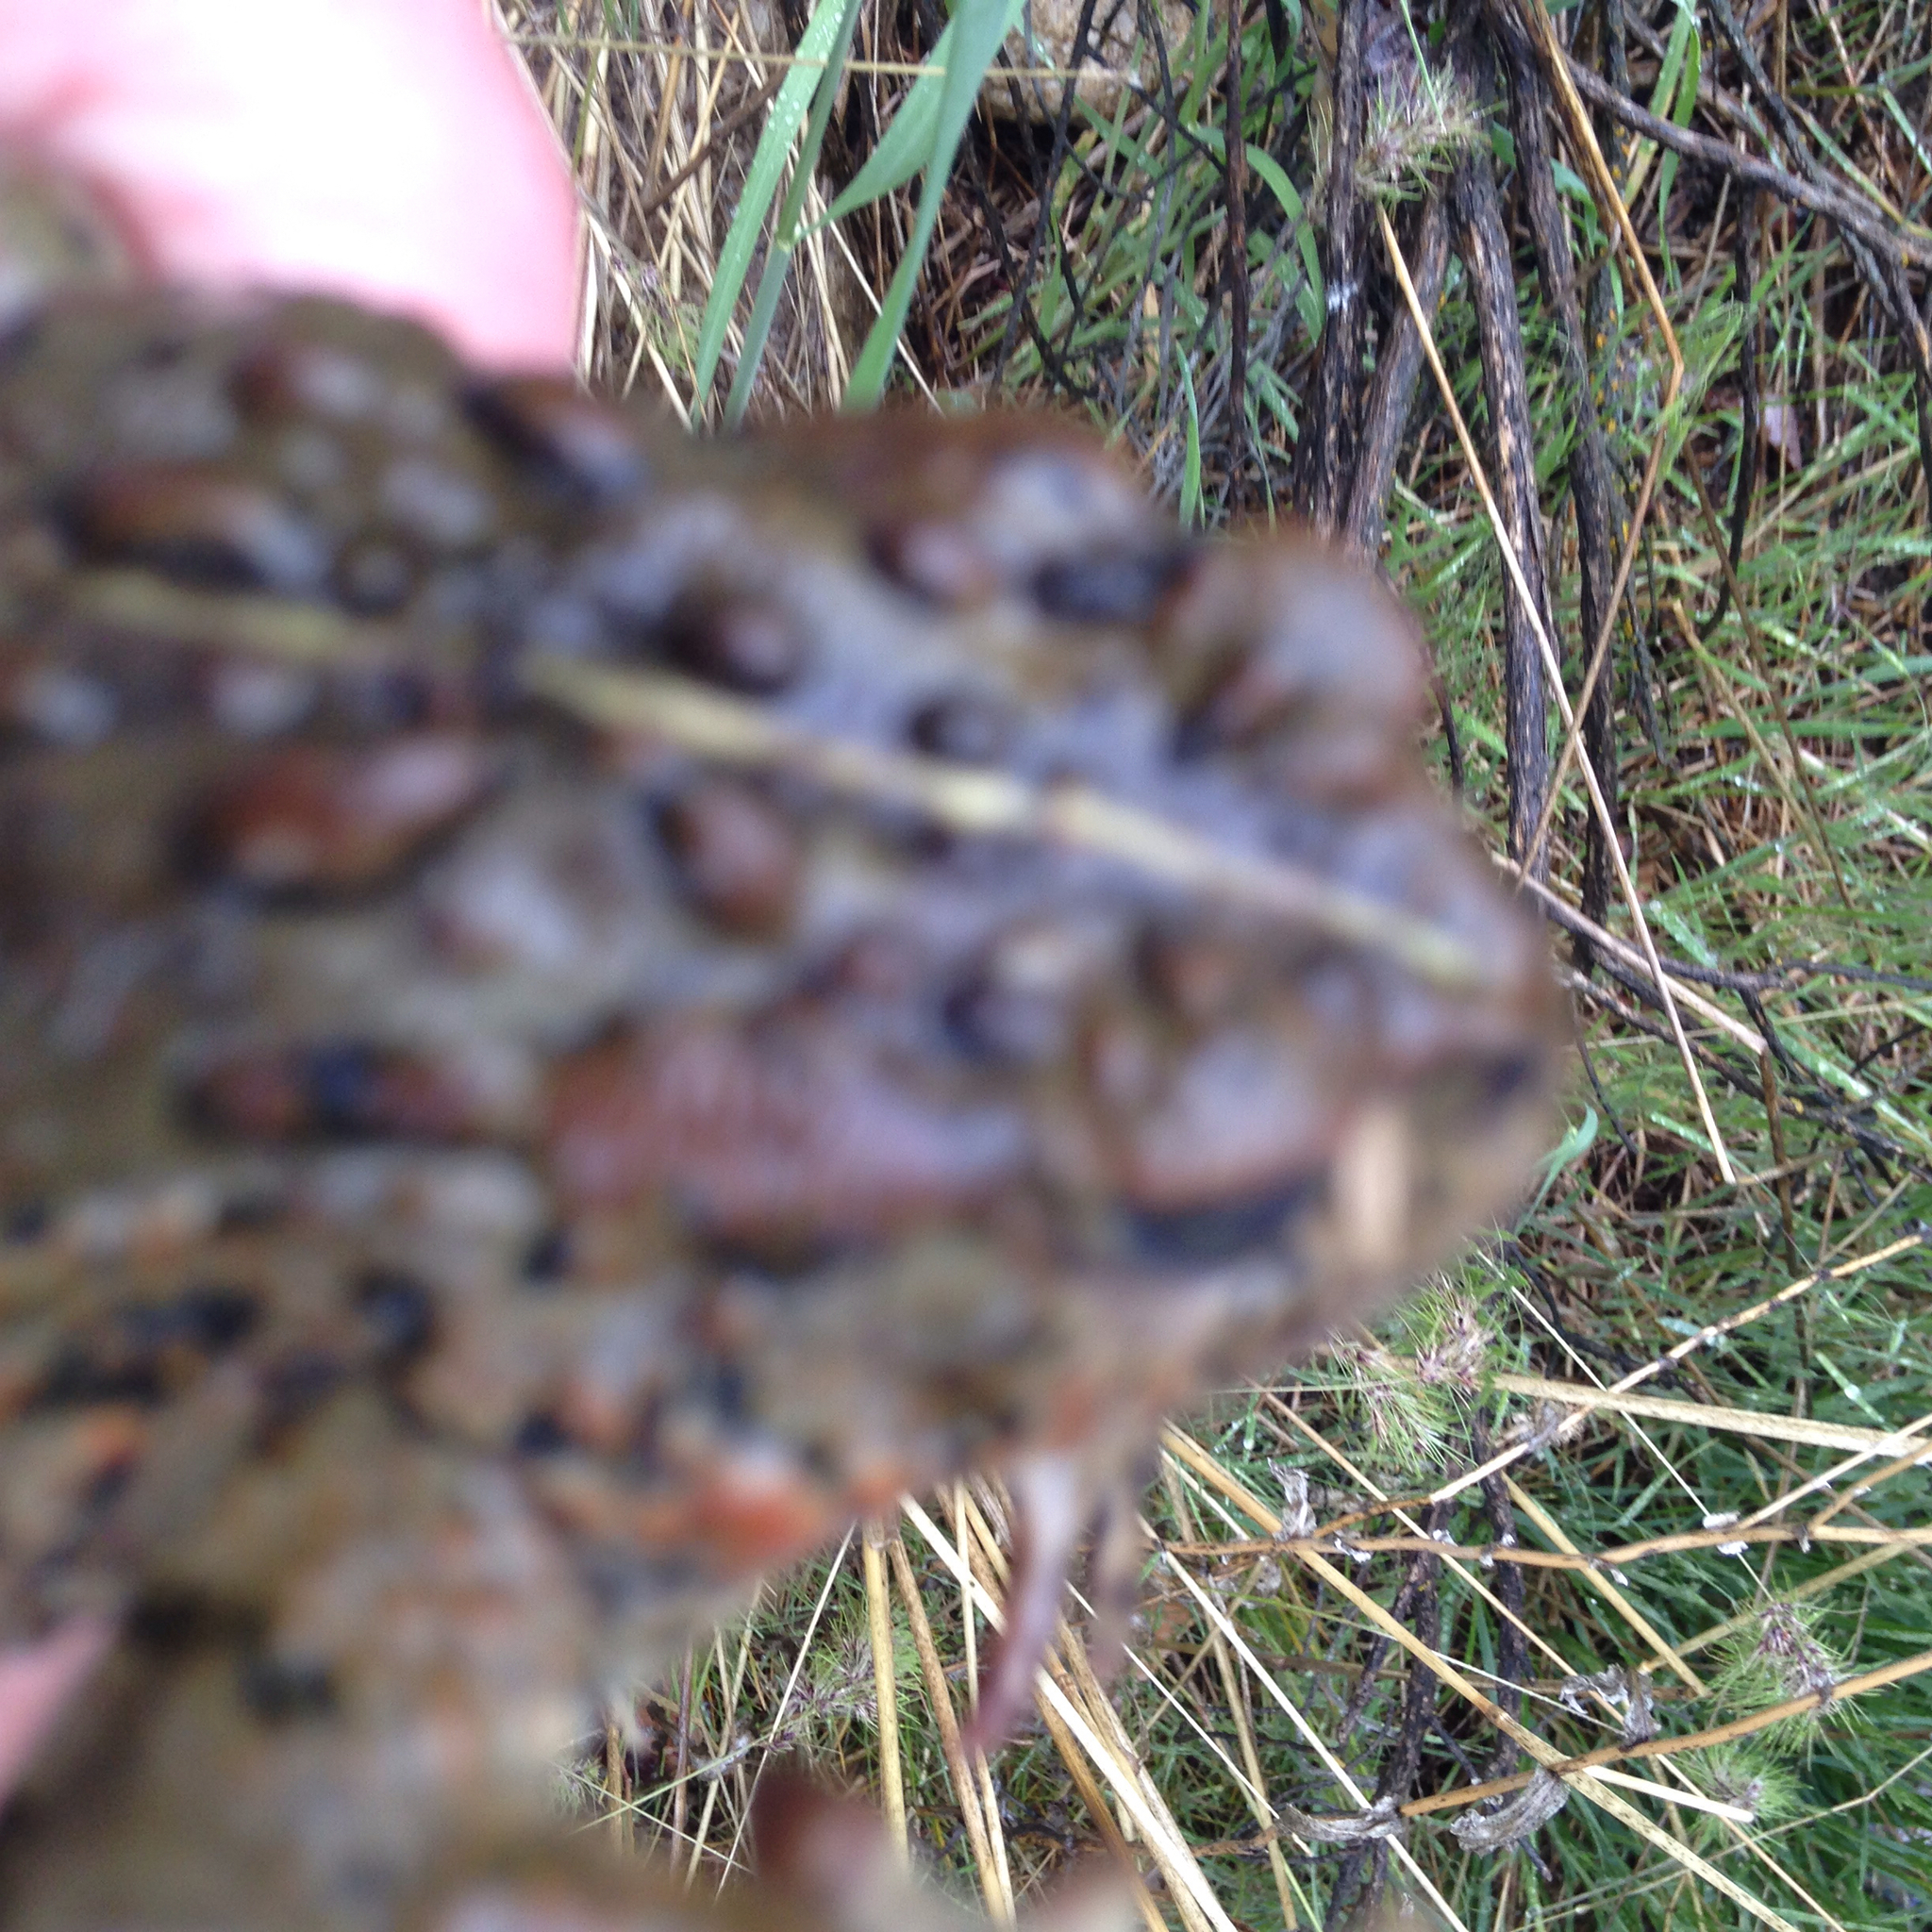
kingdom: Animalia
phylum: Chordata
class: Amphibia
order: Anura
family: Bufonidae
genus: Anaxyrus
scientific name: Anaxyrus boreas
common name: Western toad
